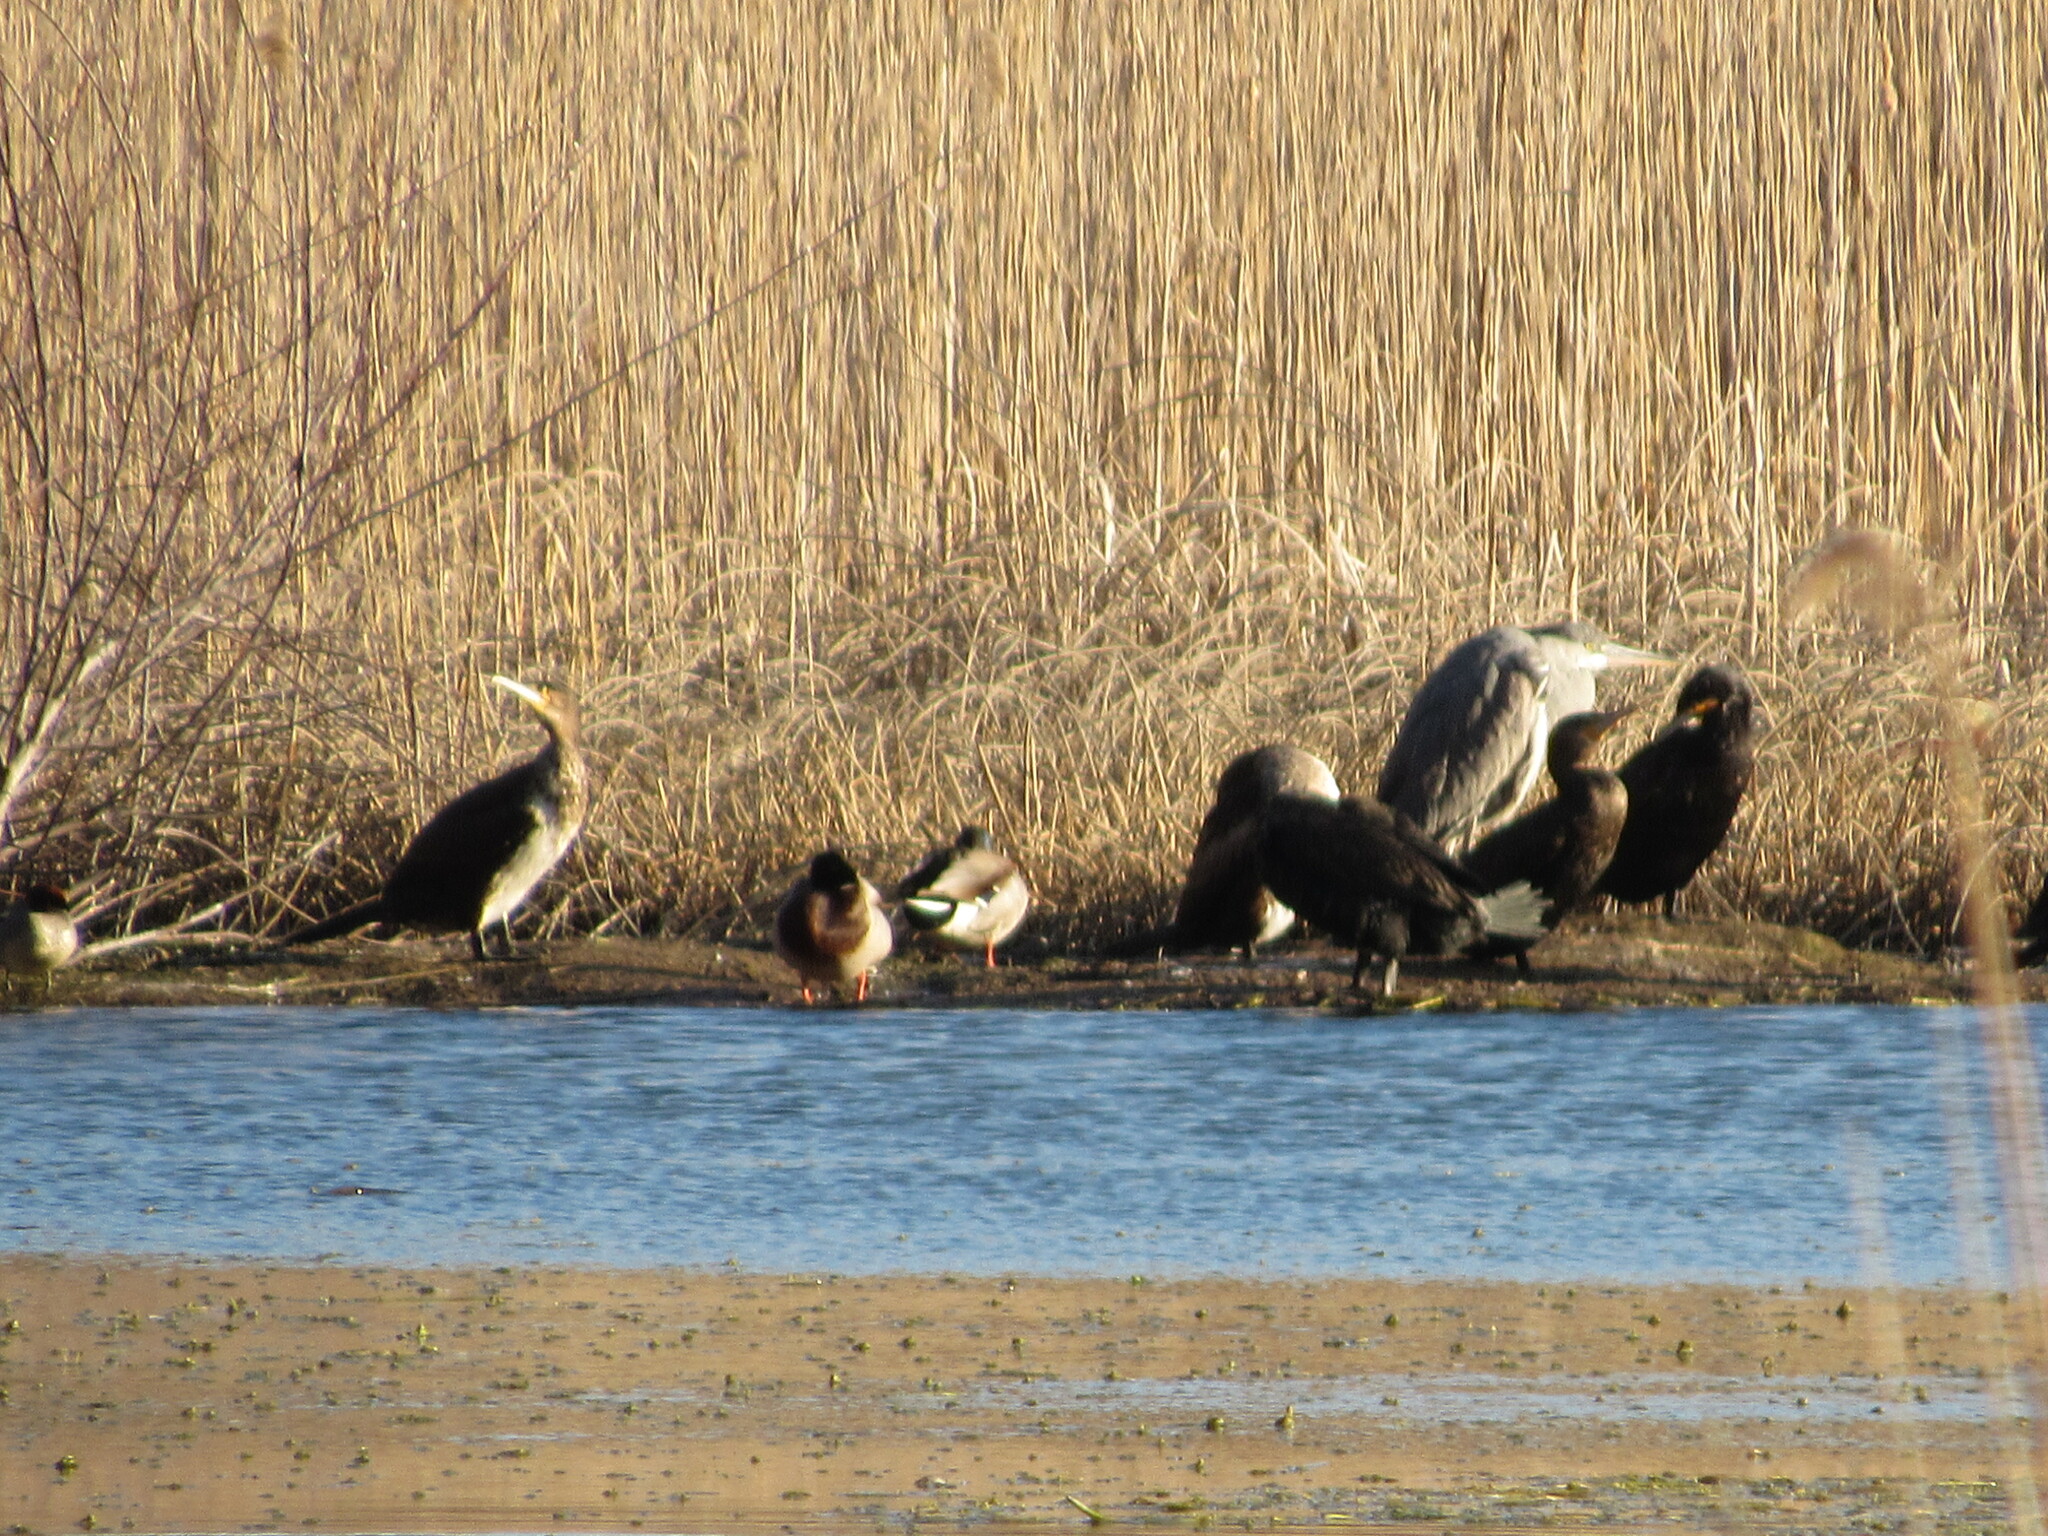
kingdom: Animalia
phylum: Chordata
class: Aves
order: Pelecaniformes
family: Ardeidae
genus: Ardea
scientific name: Ardea cinerea
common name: Grey heron
